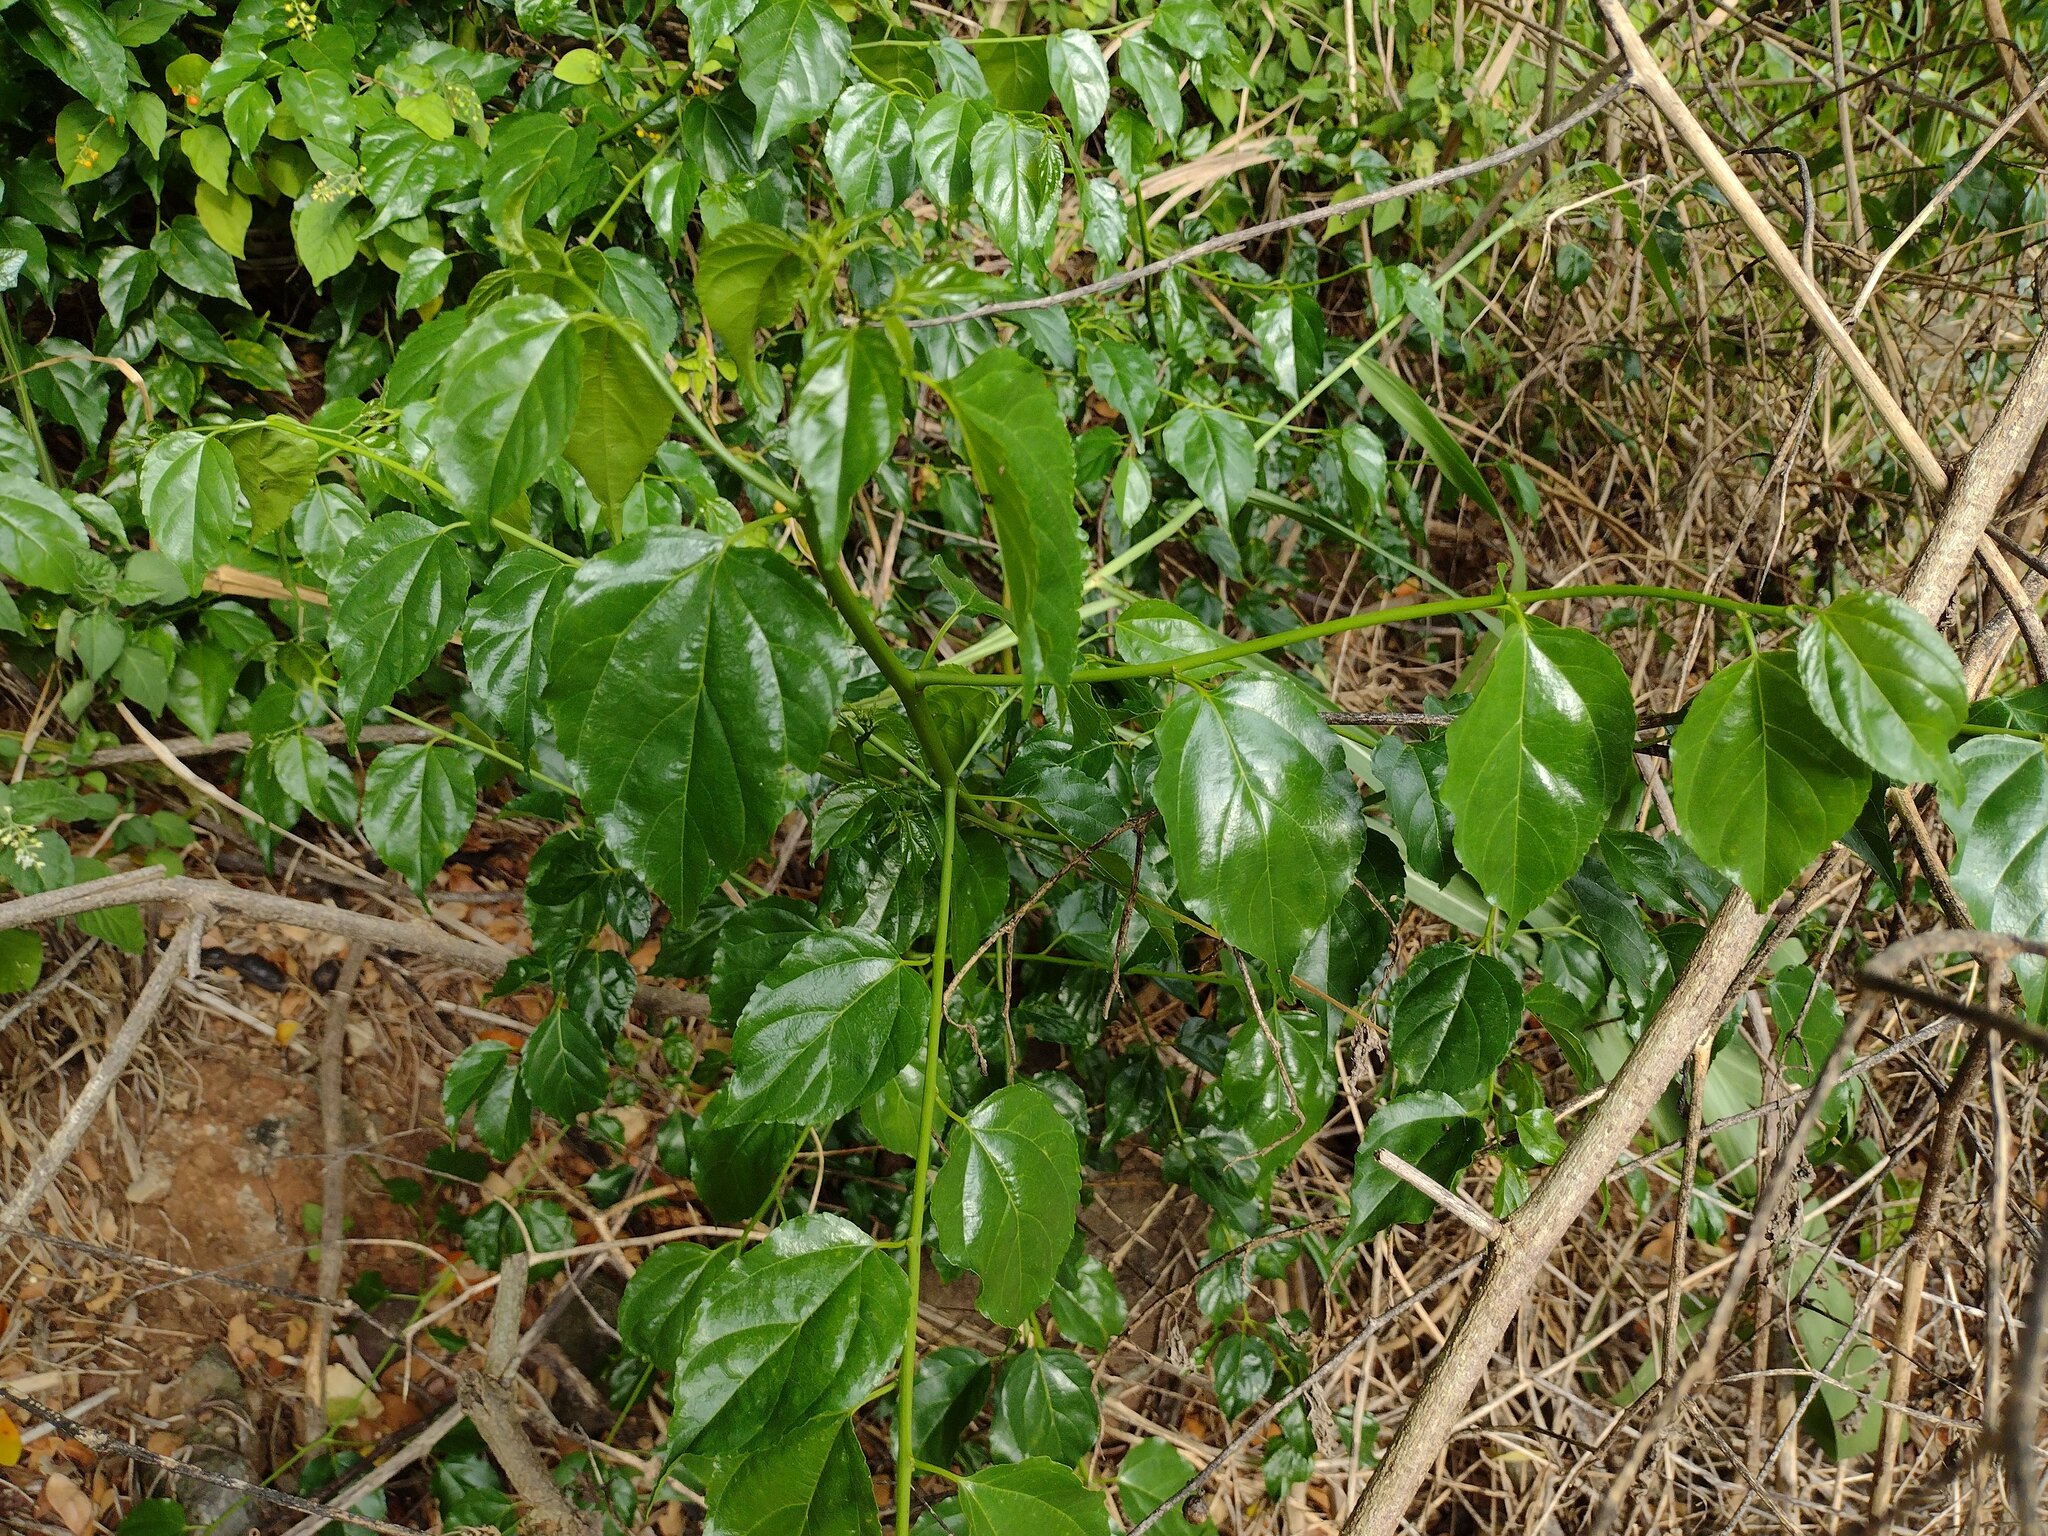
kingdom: Plantae
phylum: Tracheophyta
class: Magnoliopsida
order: Rosales
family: Rhamnaceae
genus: Colubrina
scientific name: Colubrina asiatica
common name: Asian nakedwood
